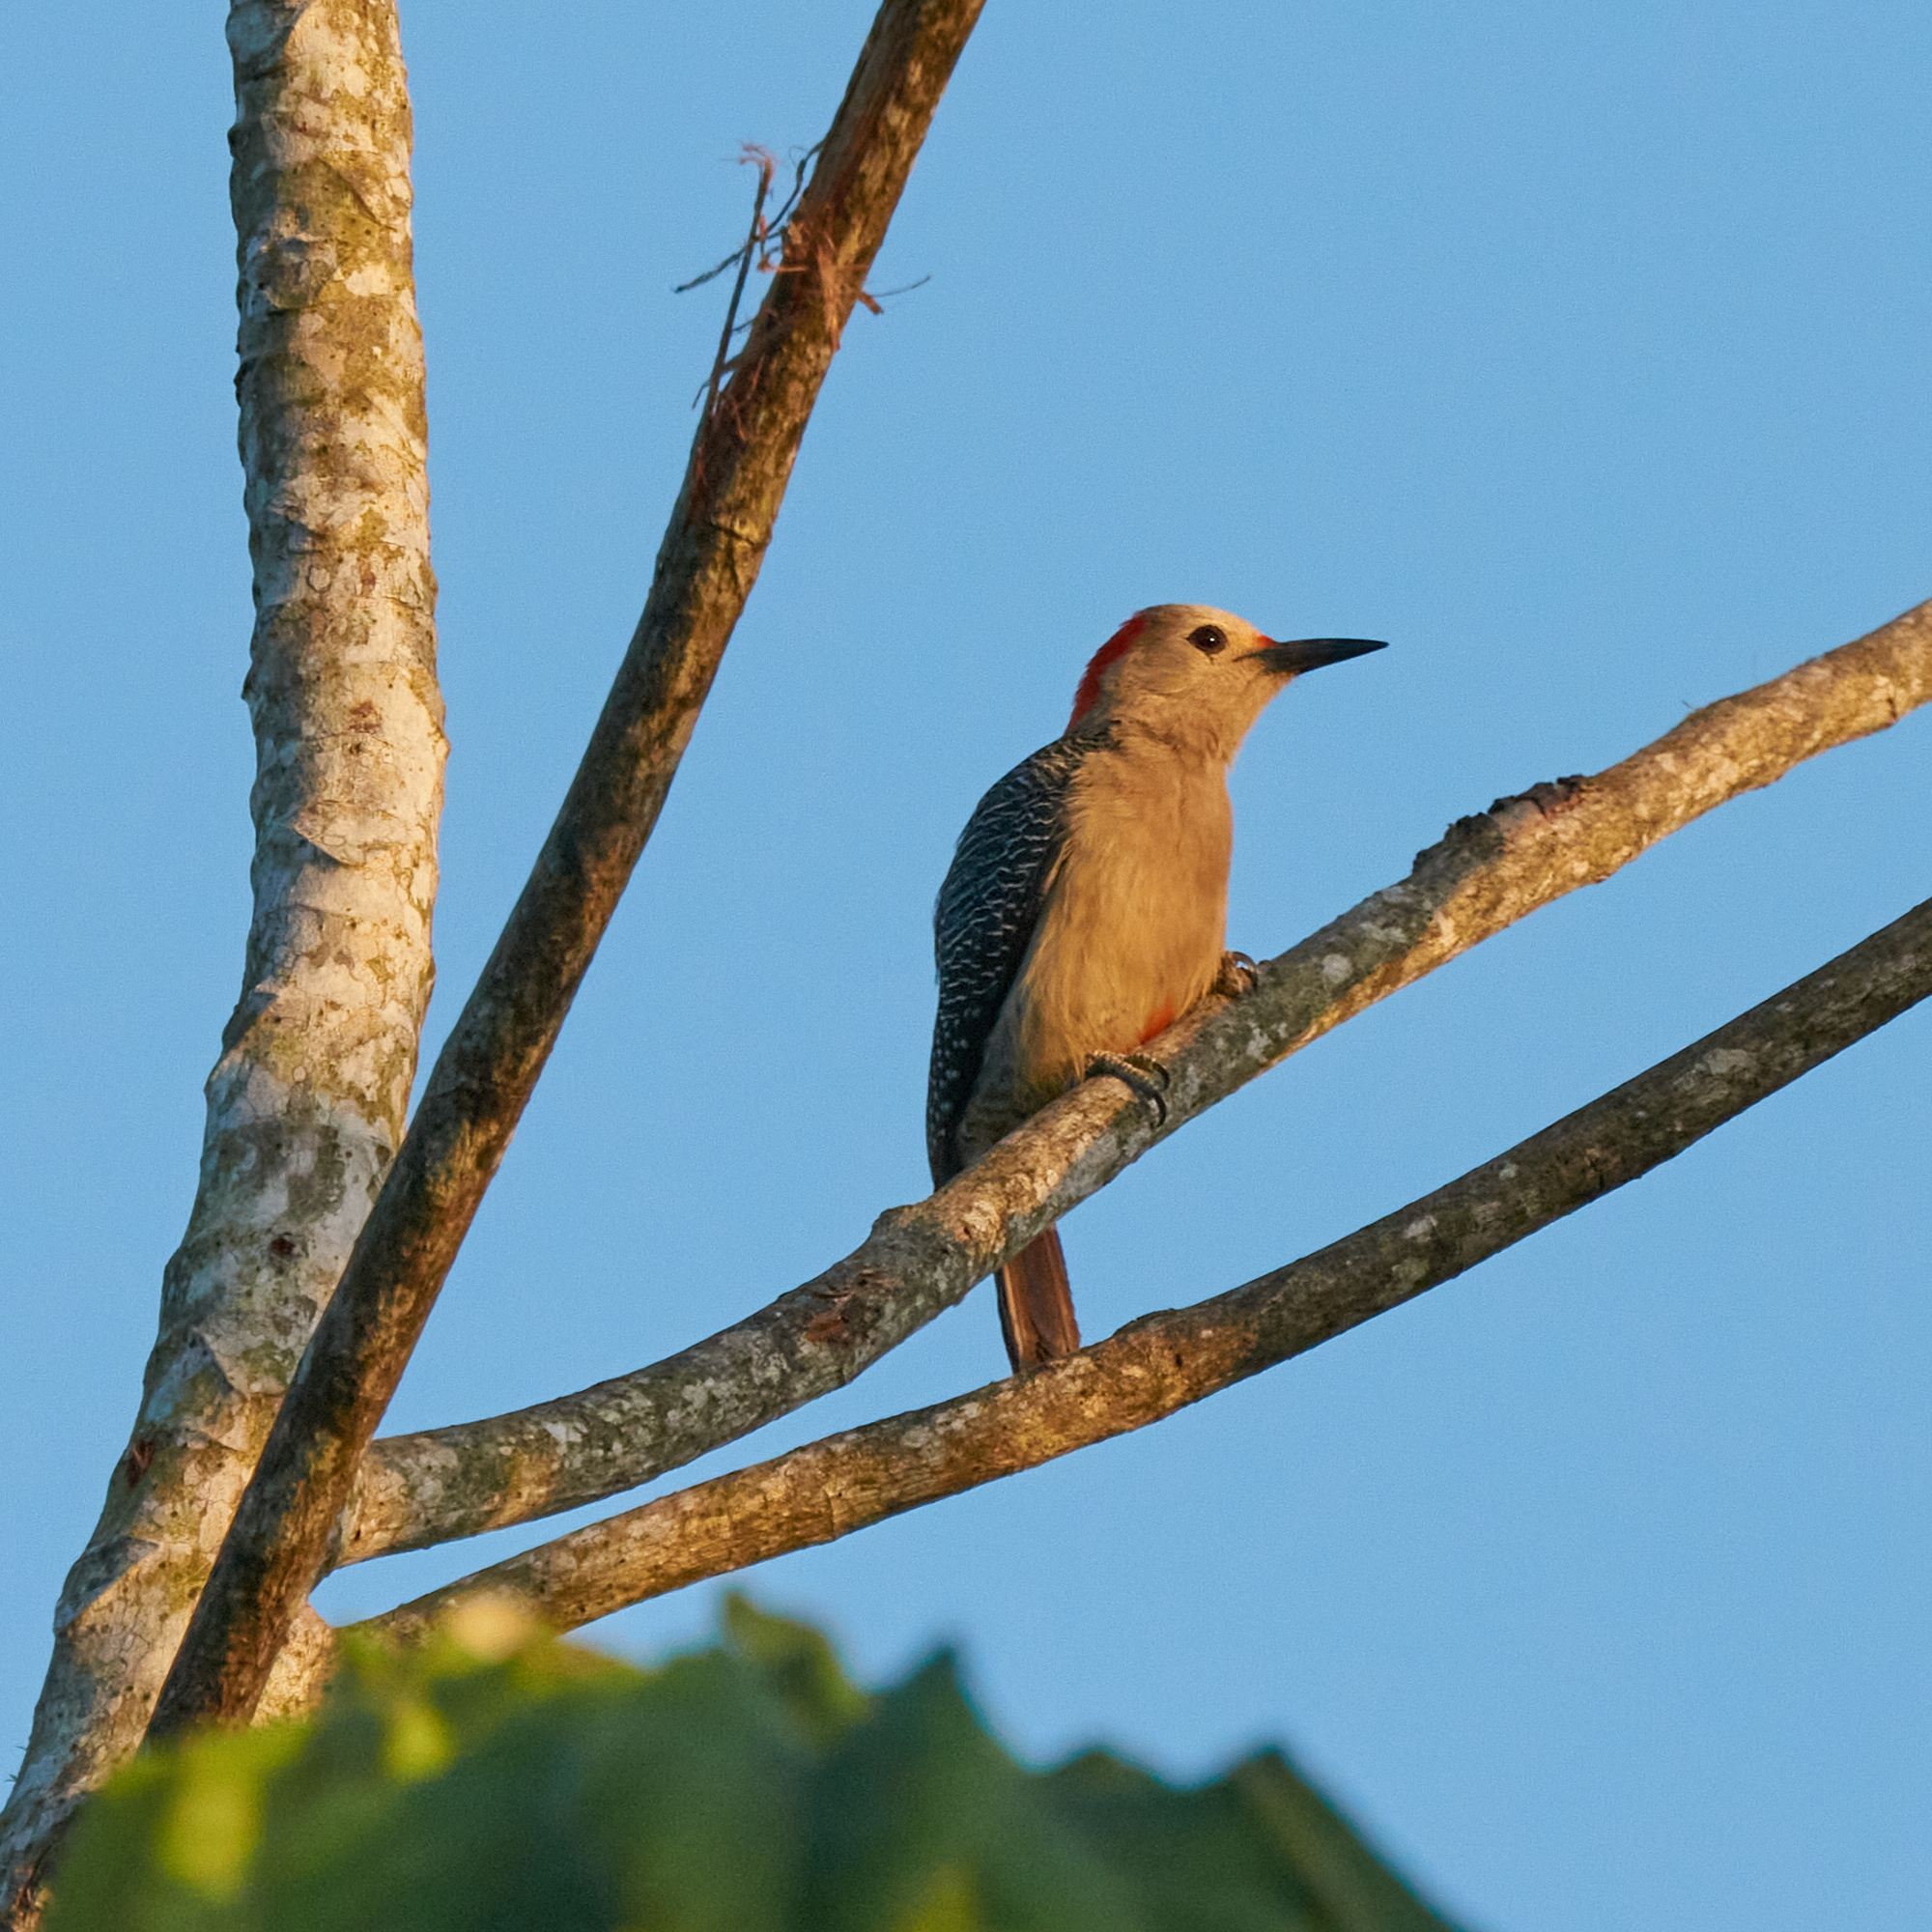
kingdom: Animalia
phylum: Chordata
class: Aves
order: Piciformes
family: Picidae
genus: Melanerpes
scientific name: Melanerpes aurifrons
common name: Golden-fronted woodpecker
